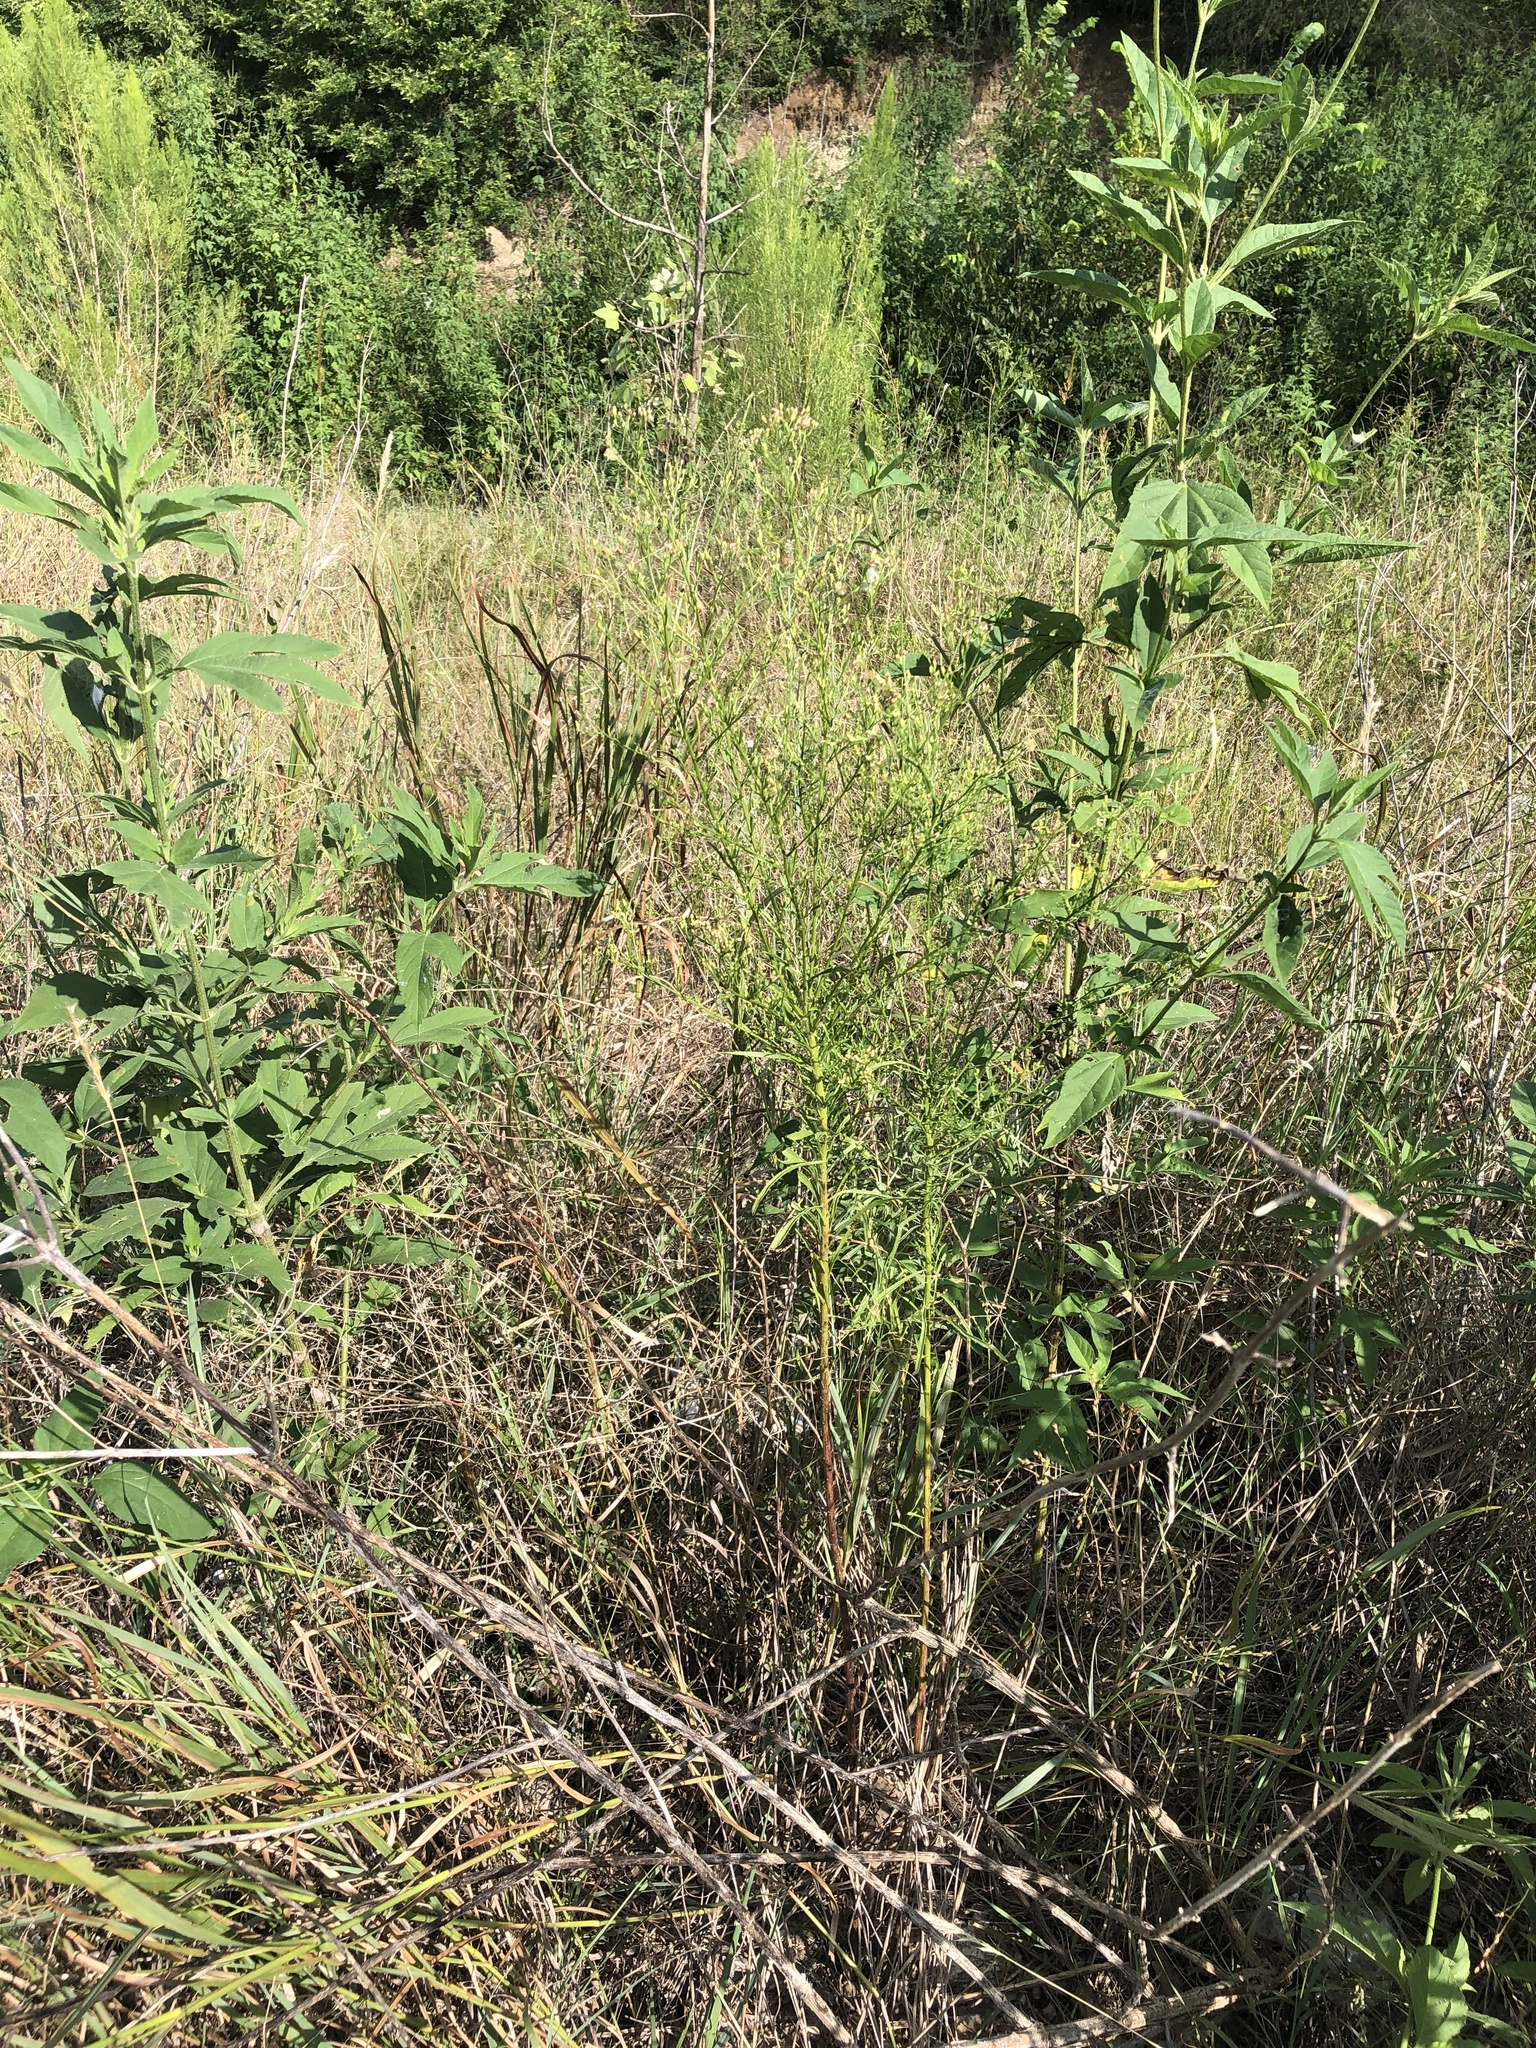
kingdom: Plantae
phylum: Tracheophyta
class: Magnoliopsida
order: Asterales
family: Asteraceae
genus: Erigeron
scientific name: Erigeron canadensis
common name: Canadian fleabane
